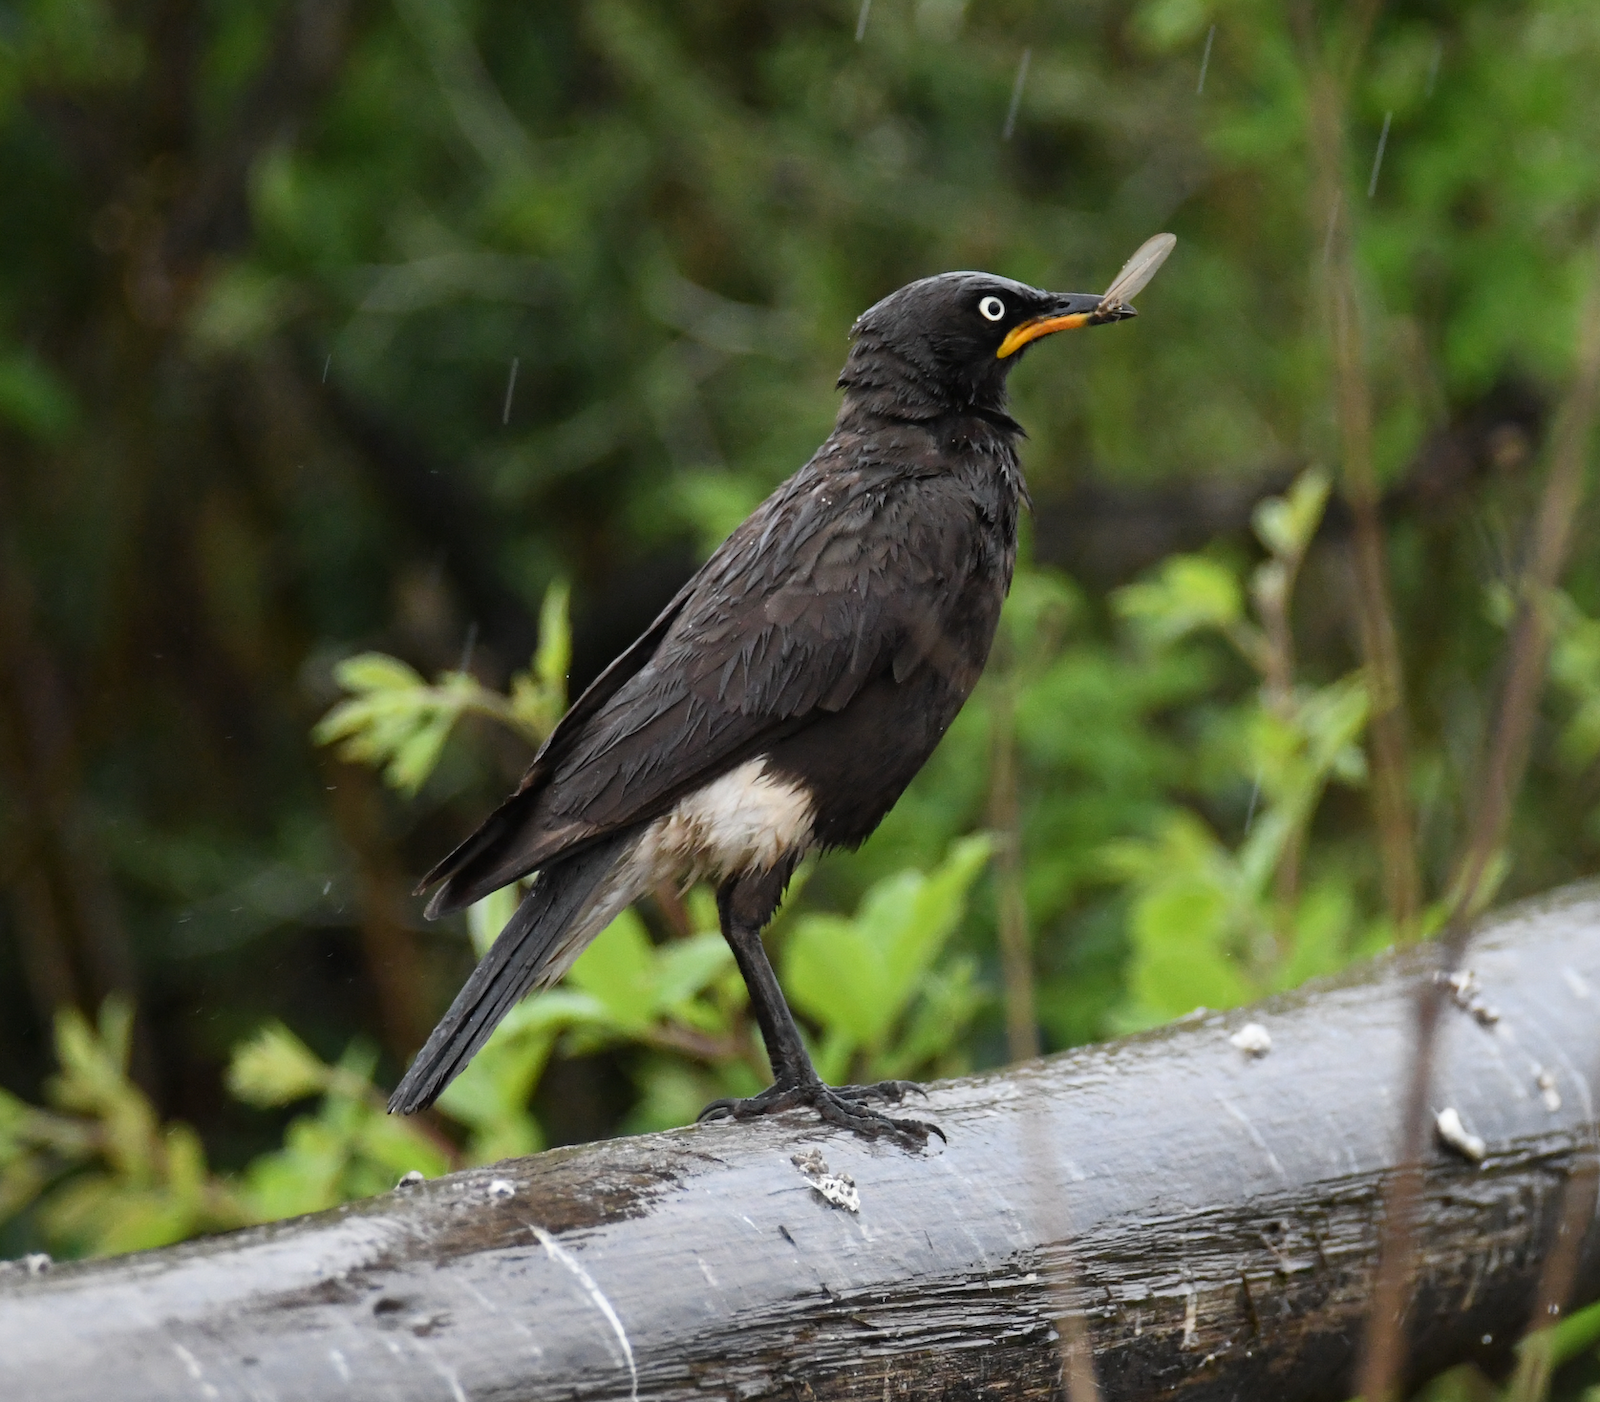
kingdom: Animalia
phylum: Chordata
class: Aves
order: Passeriformes
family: Sturnidae
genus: Lamprotornis
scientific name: Lamprotornis bicolor
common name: Pied starling
